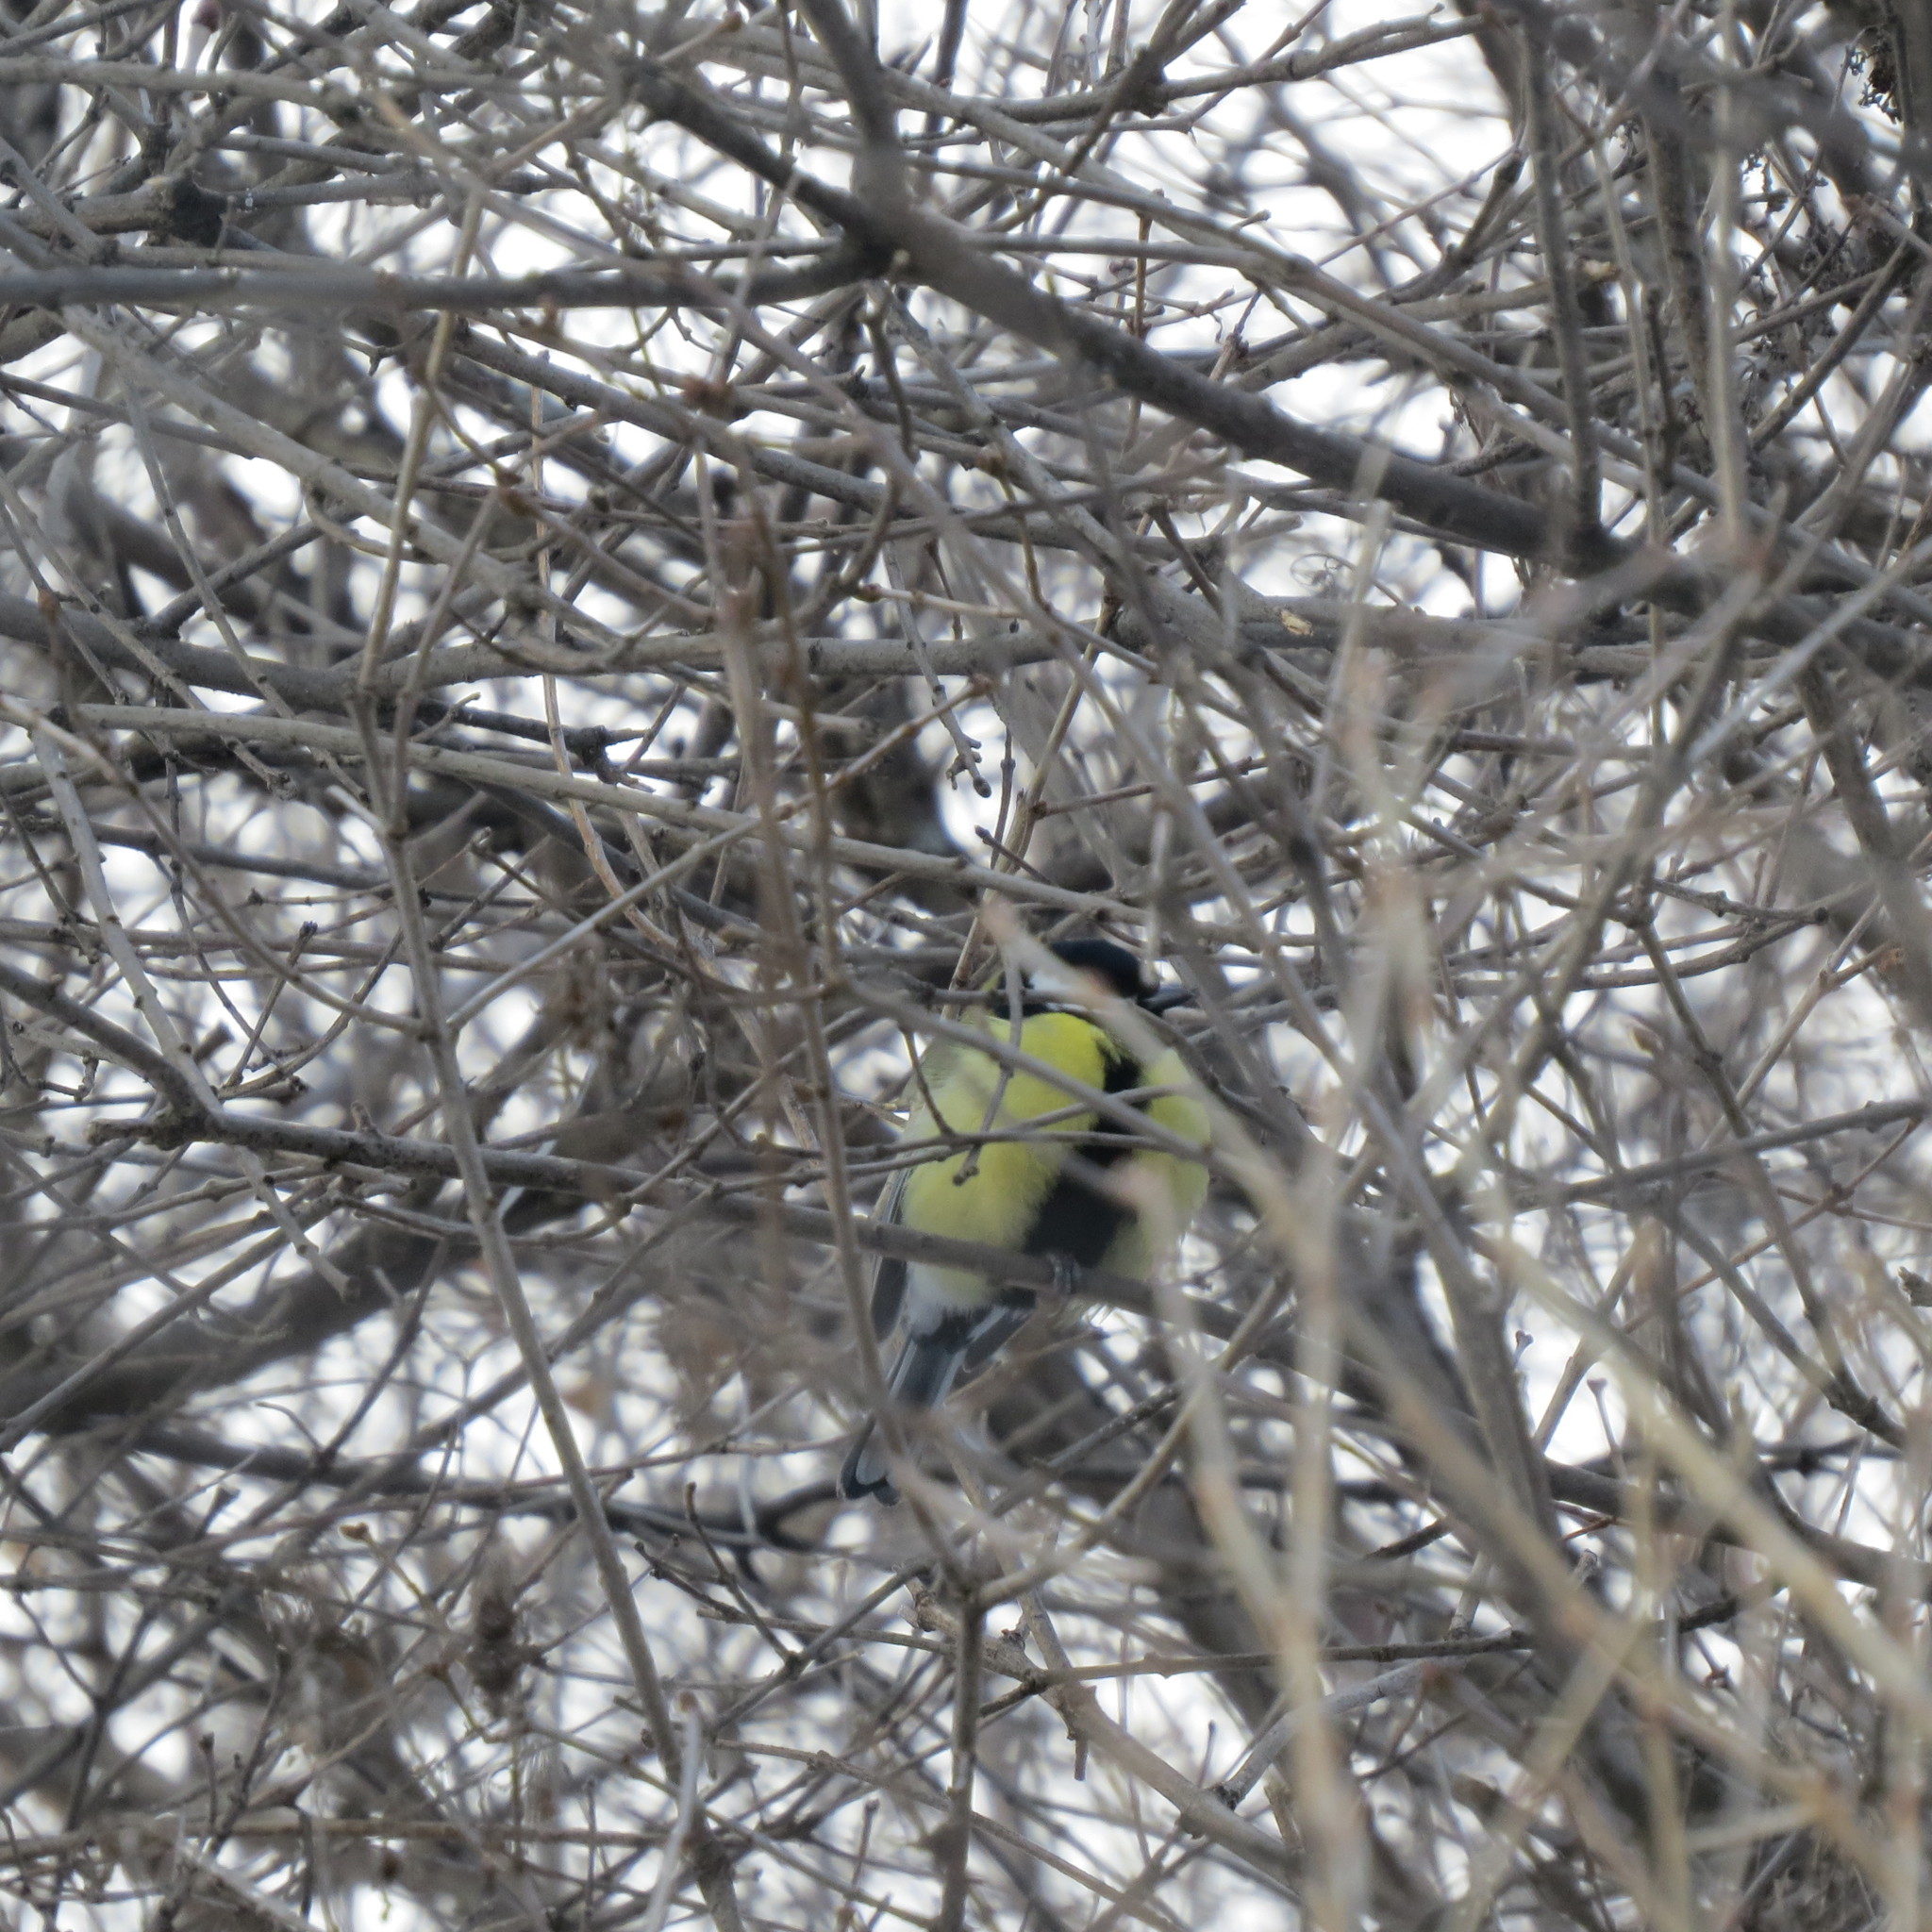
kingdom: Animalia
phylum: Chordata
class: Aves
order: Passeriformes
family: Paridae
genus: Parus
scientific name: Parus major
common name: Great tit
